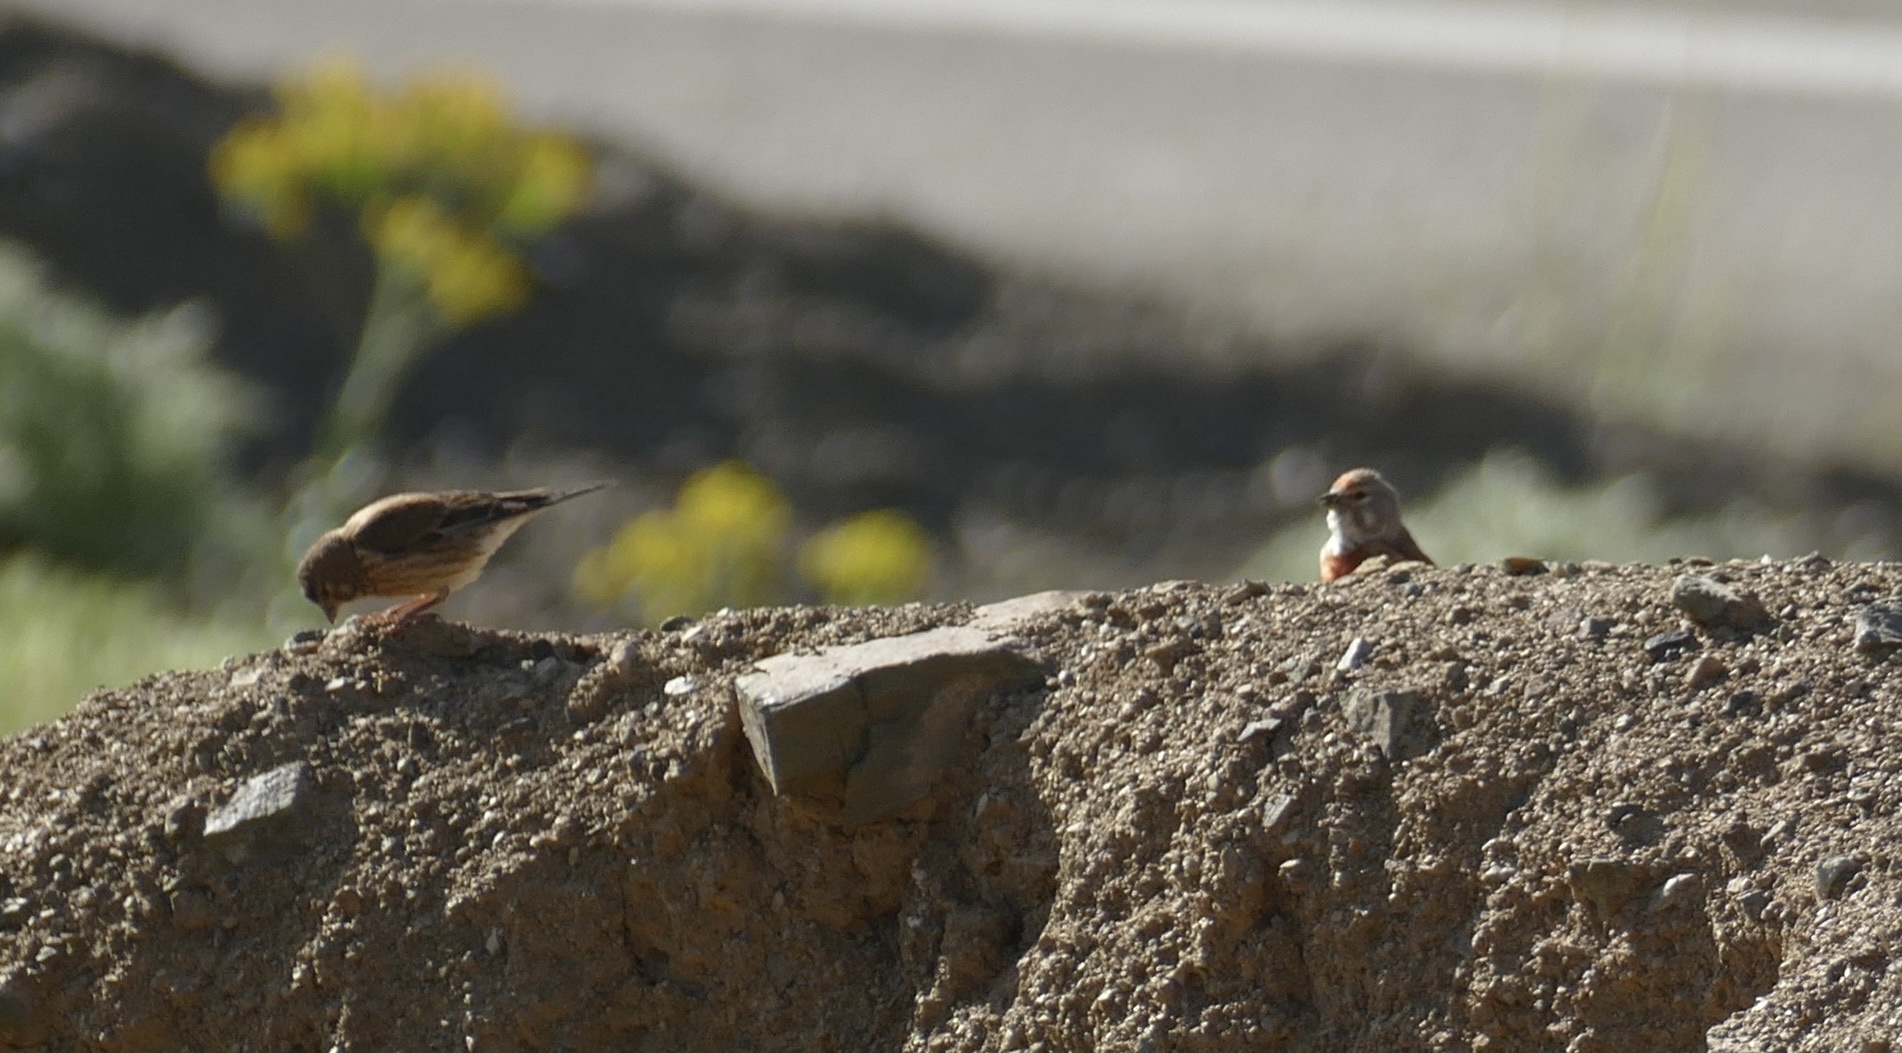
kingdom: Animalia
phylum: Chordata
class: Aves
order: Passeriformes
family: Fringillidae
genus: Linaria
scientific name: Linaria cannabina
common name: Common linnet
